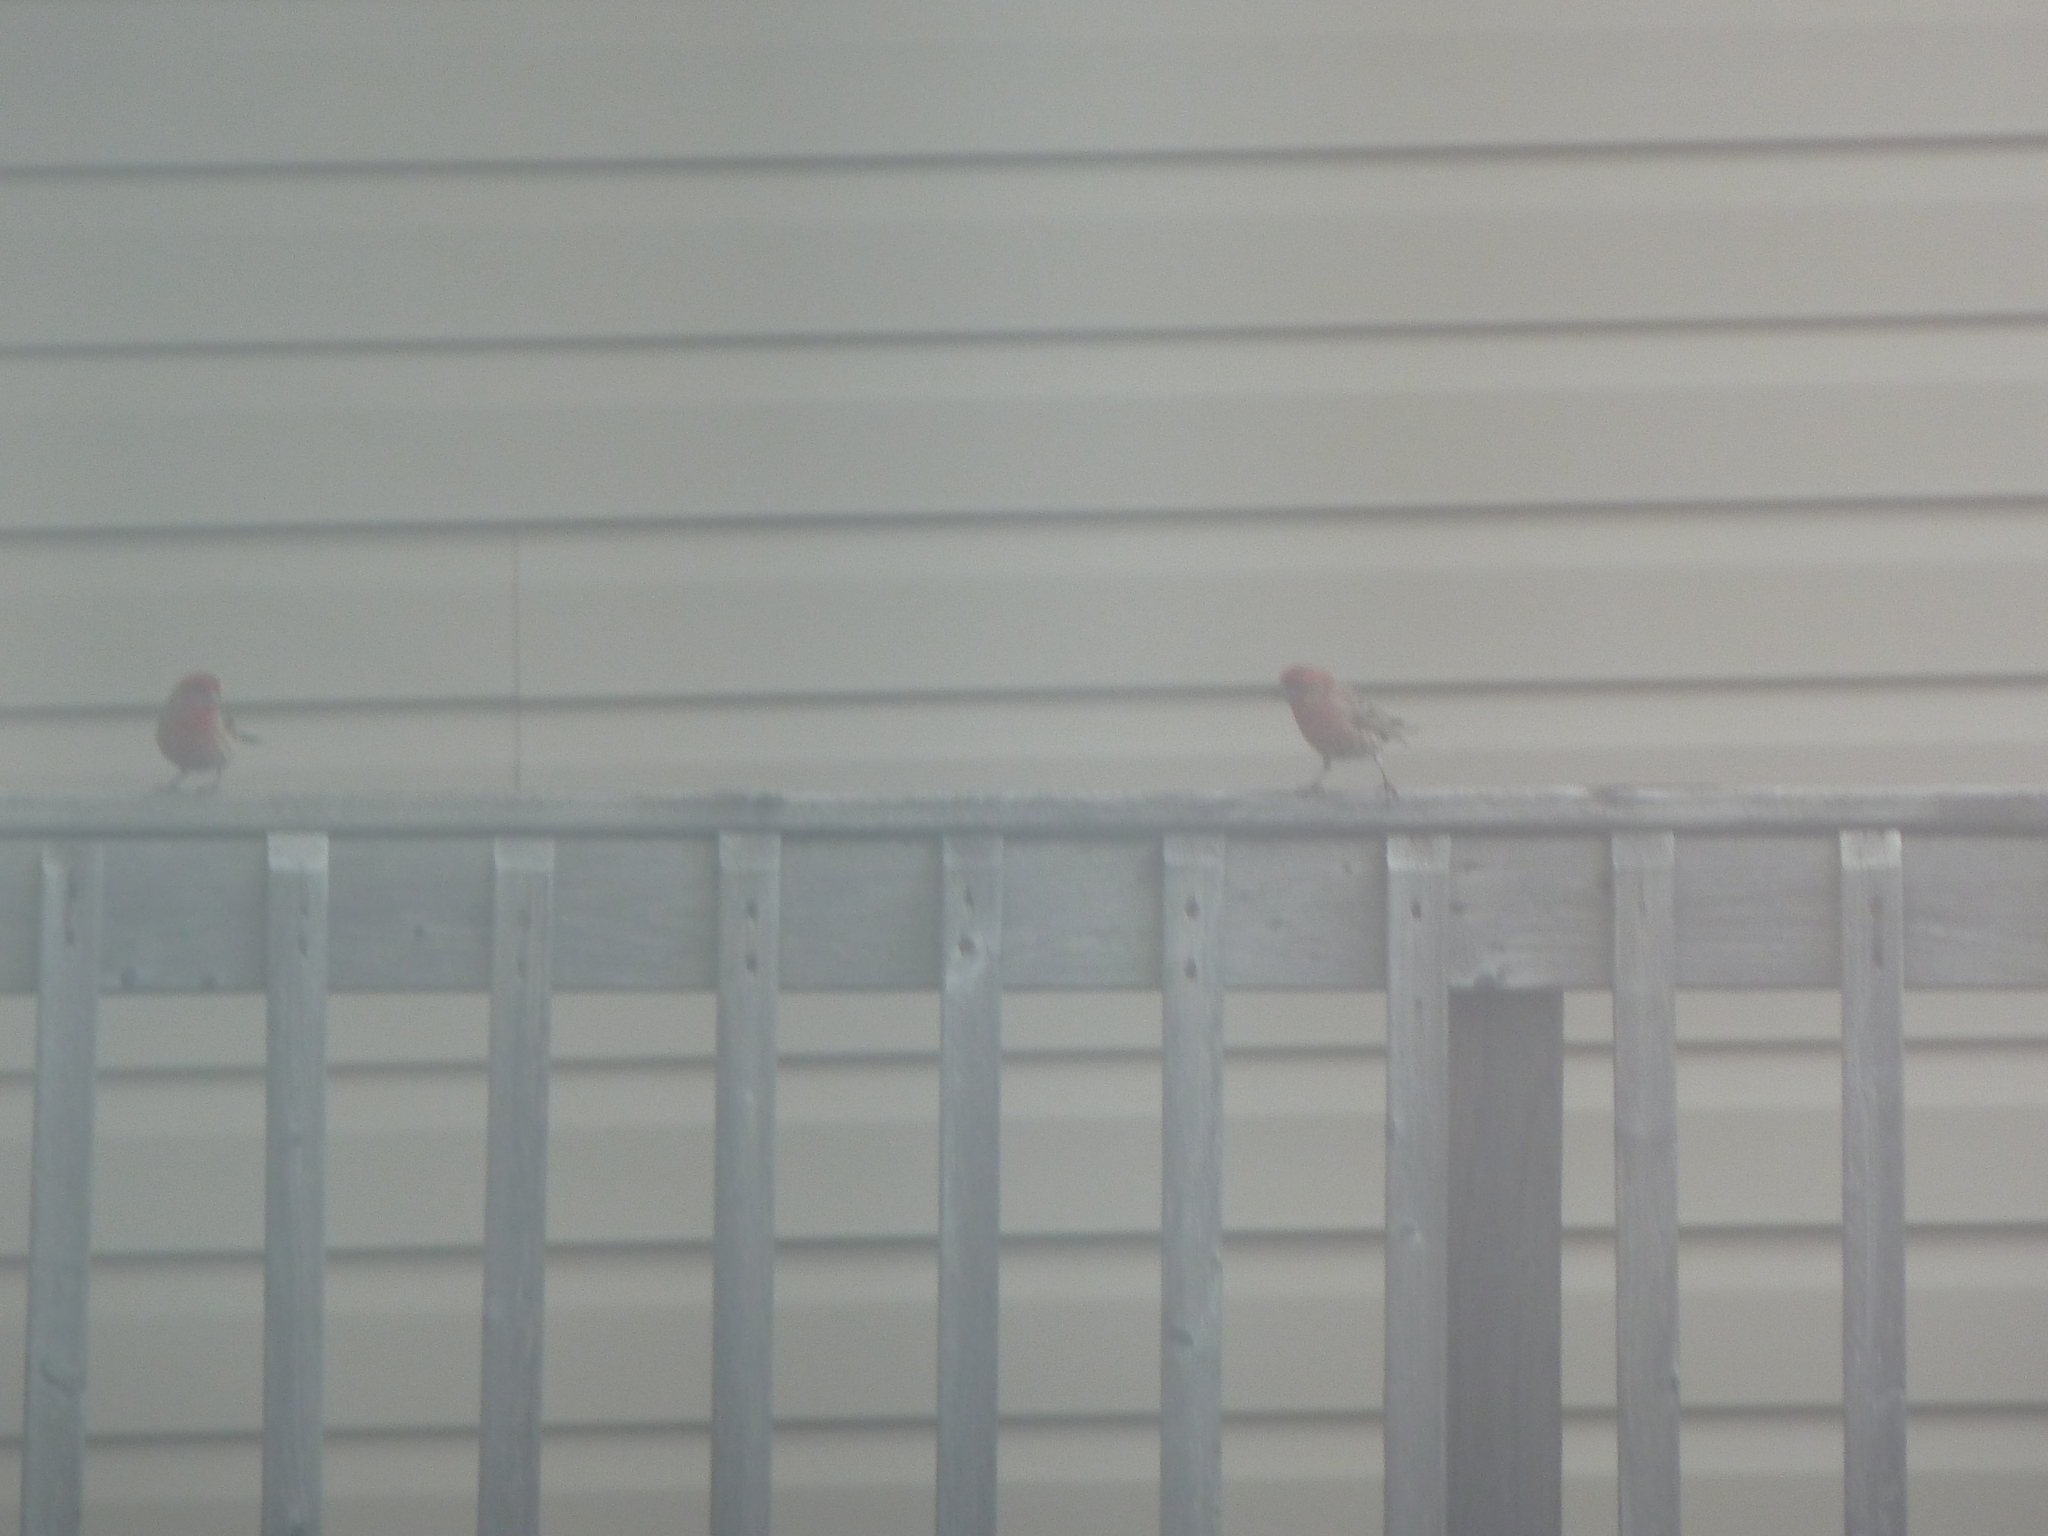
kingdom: Animalia
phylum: Chordata
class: Aves
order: Passeriformes
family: Fringillidae
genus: Haemorhous
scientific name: Haemorhous mexicanus
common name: House finch
